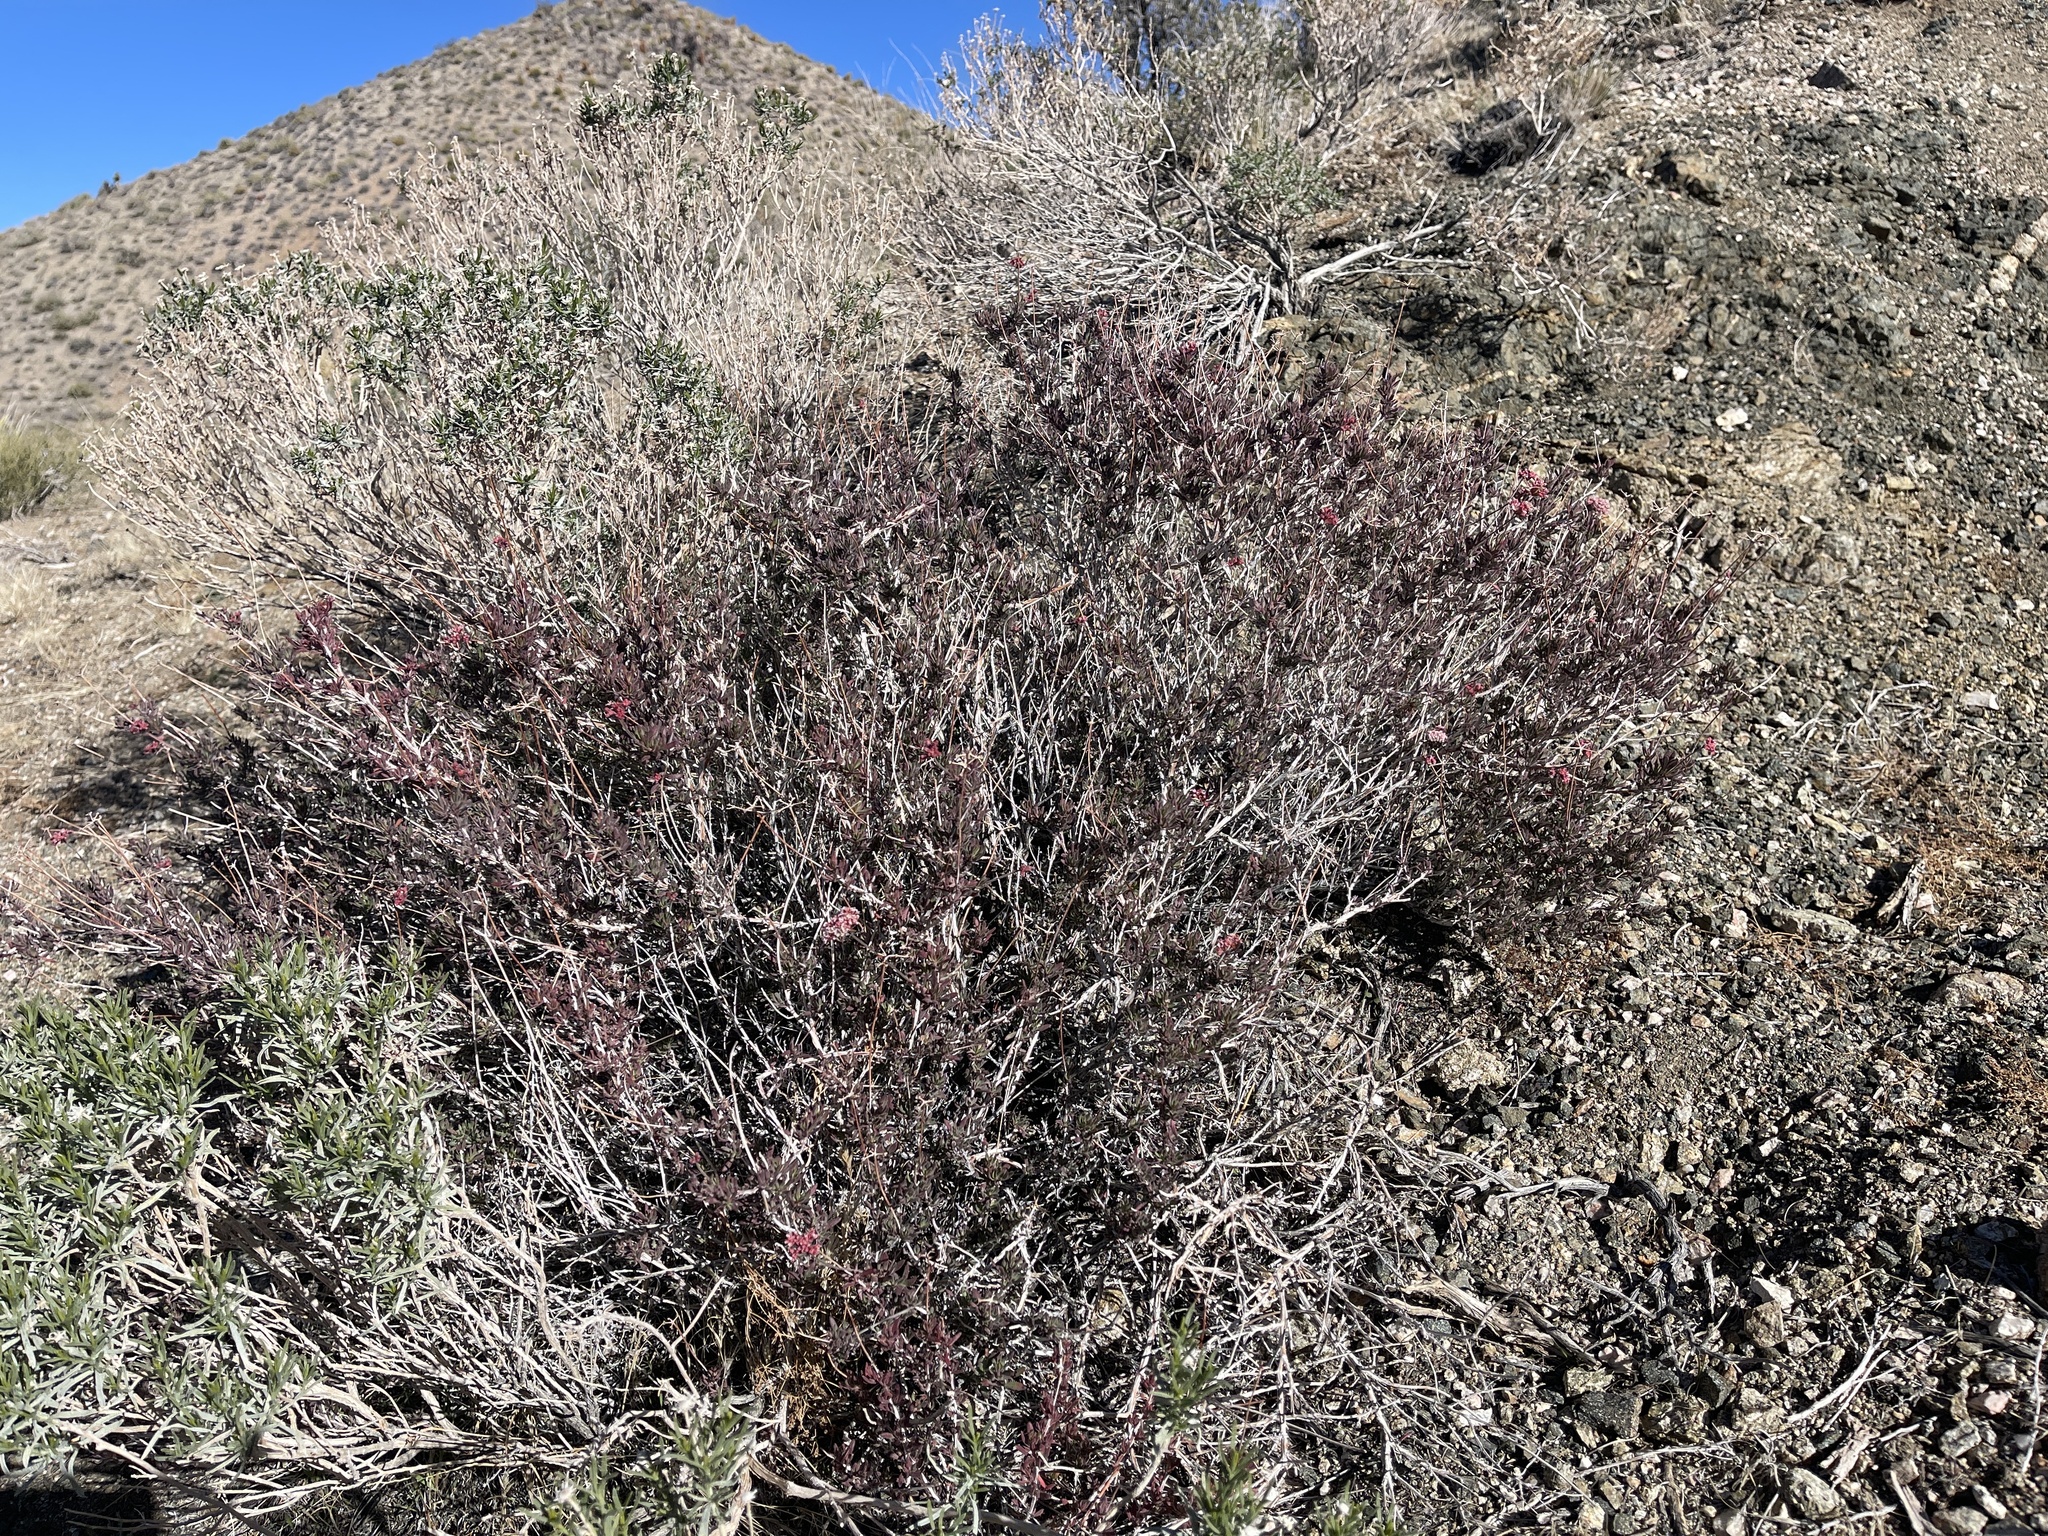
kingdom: Plantae
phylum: Tracheophyta
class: Magnoliopsida
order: Caryophyllales
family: Polygonaceae
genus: Eriogonum
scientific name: Eriogonum fasciculatum
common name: California wild buckwheat
